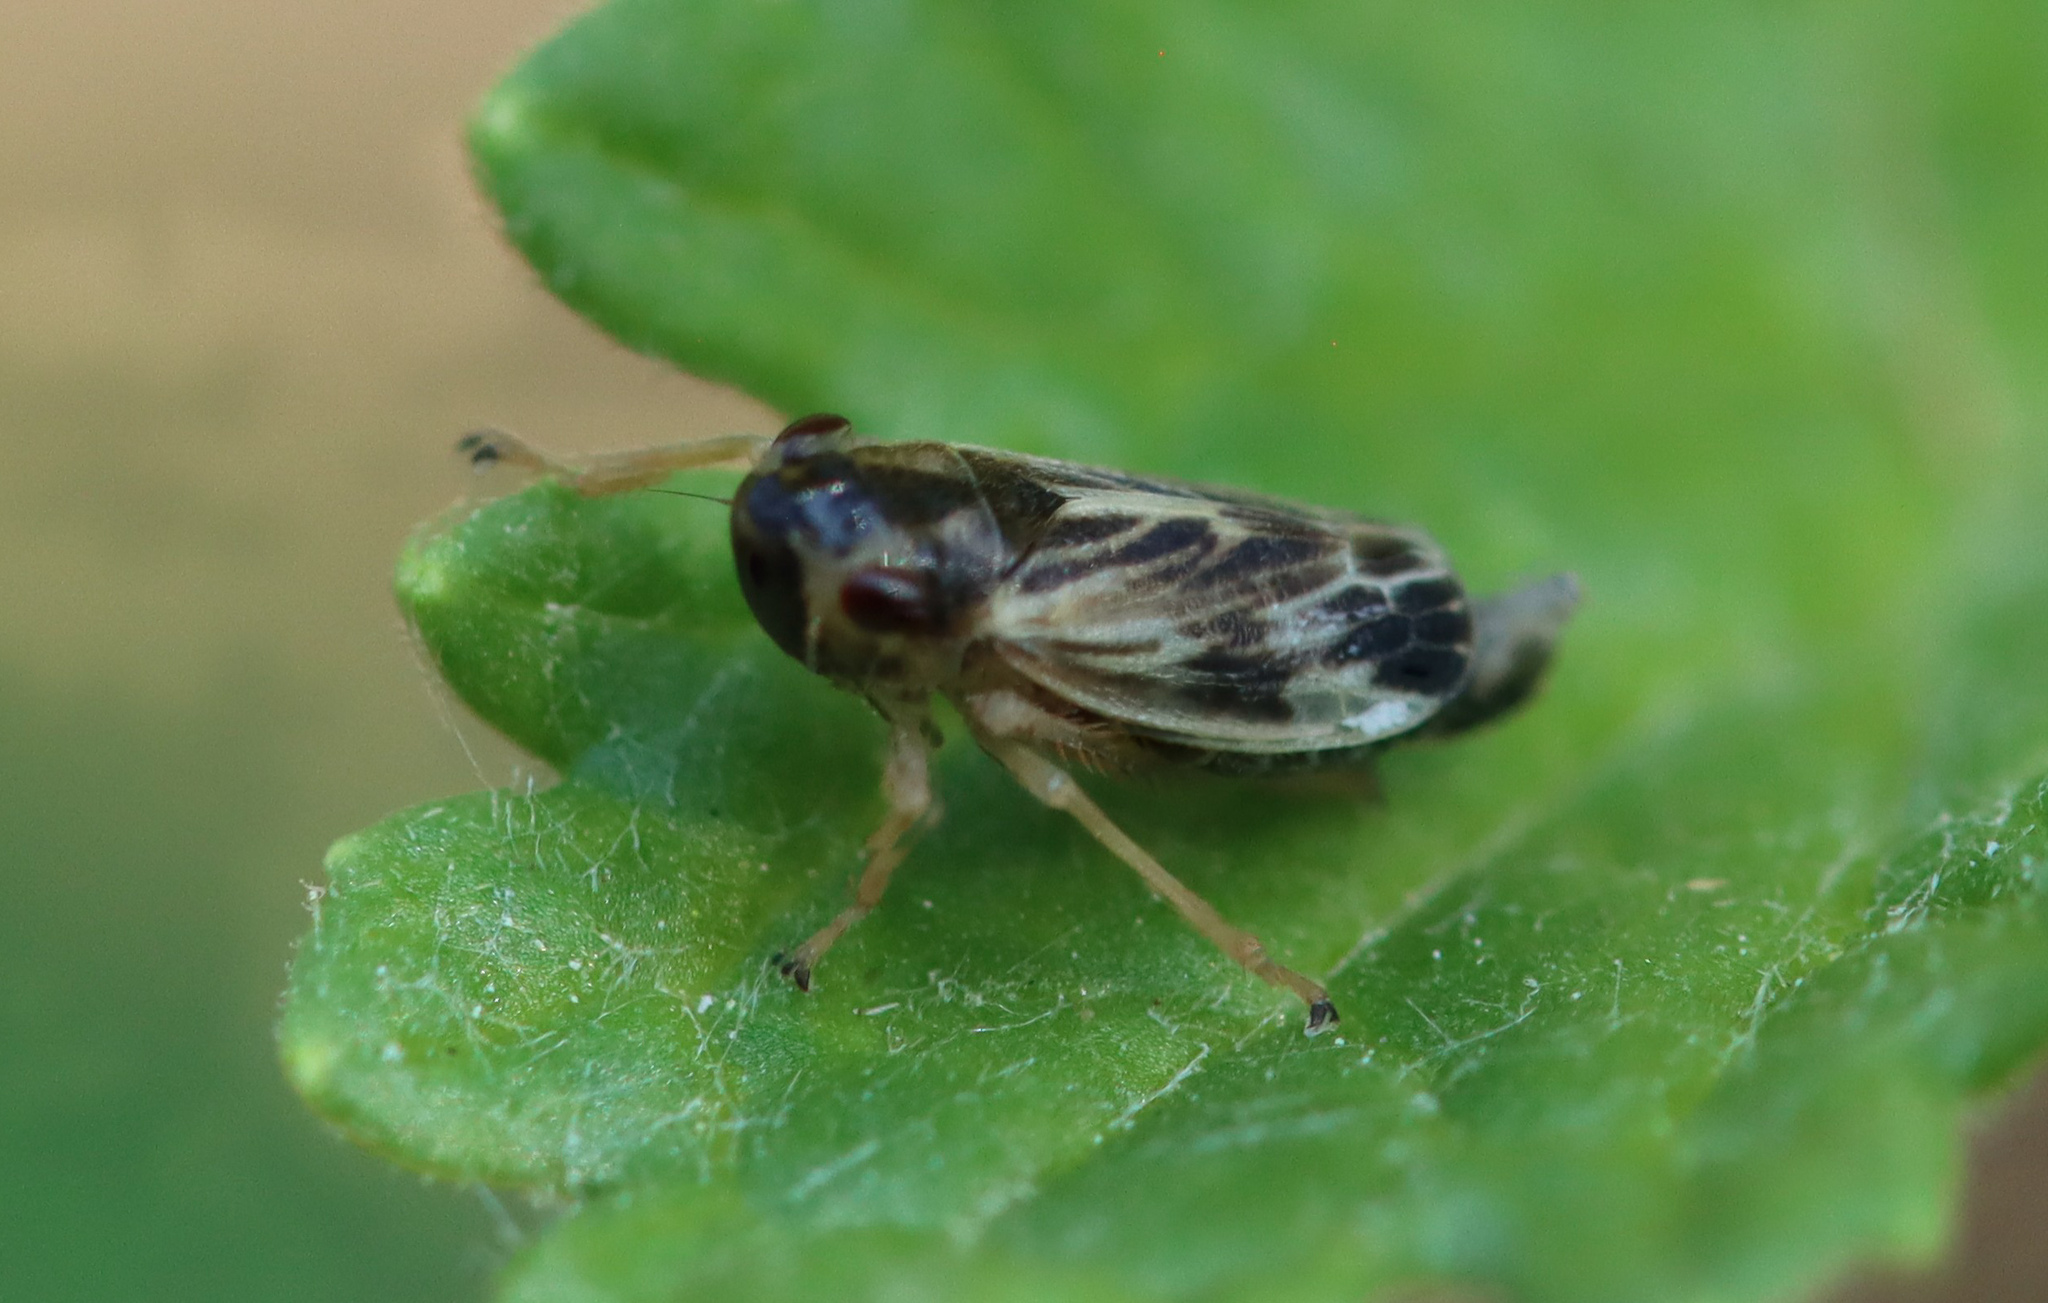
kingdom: Animalia
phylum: Arthropoda
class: Insecta
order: Hemiptera
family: Cicadellidae
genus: Evacanthus
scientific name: Evacanthus acuminatus
